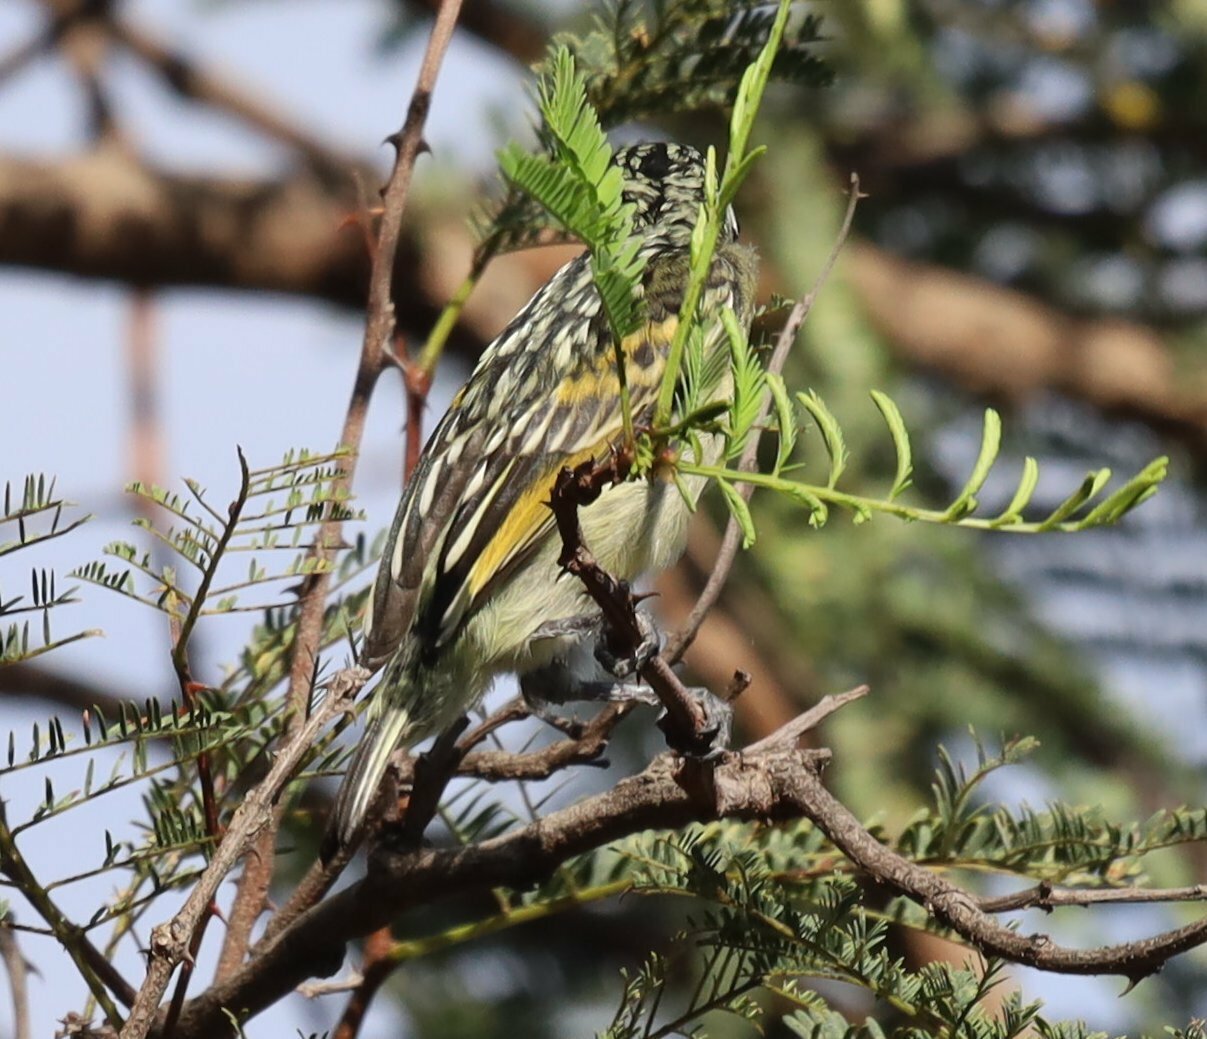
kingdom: Animalia
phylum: Chordata
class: Aves
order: Piciformes
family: Lybiidae
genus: Pogoniulus
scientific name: Pogoniulus chrysoconus
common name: Yellow-fronted tinkerbird
